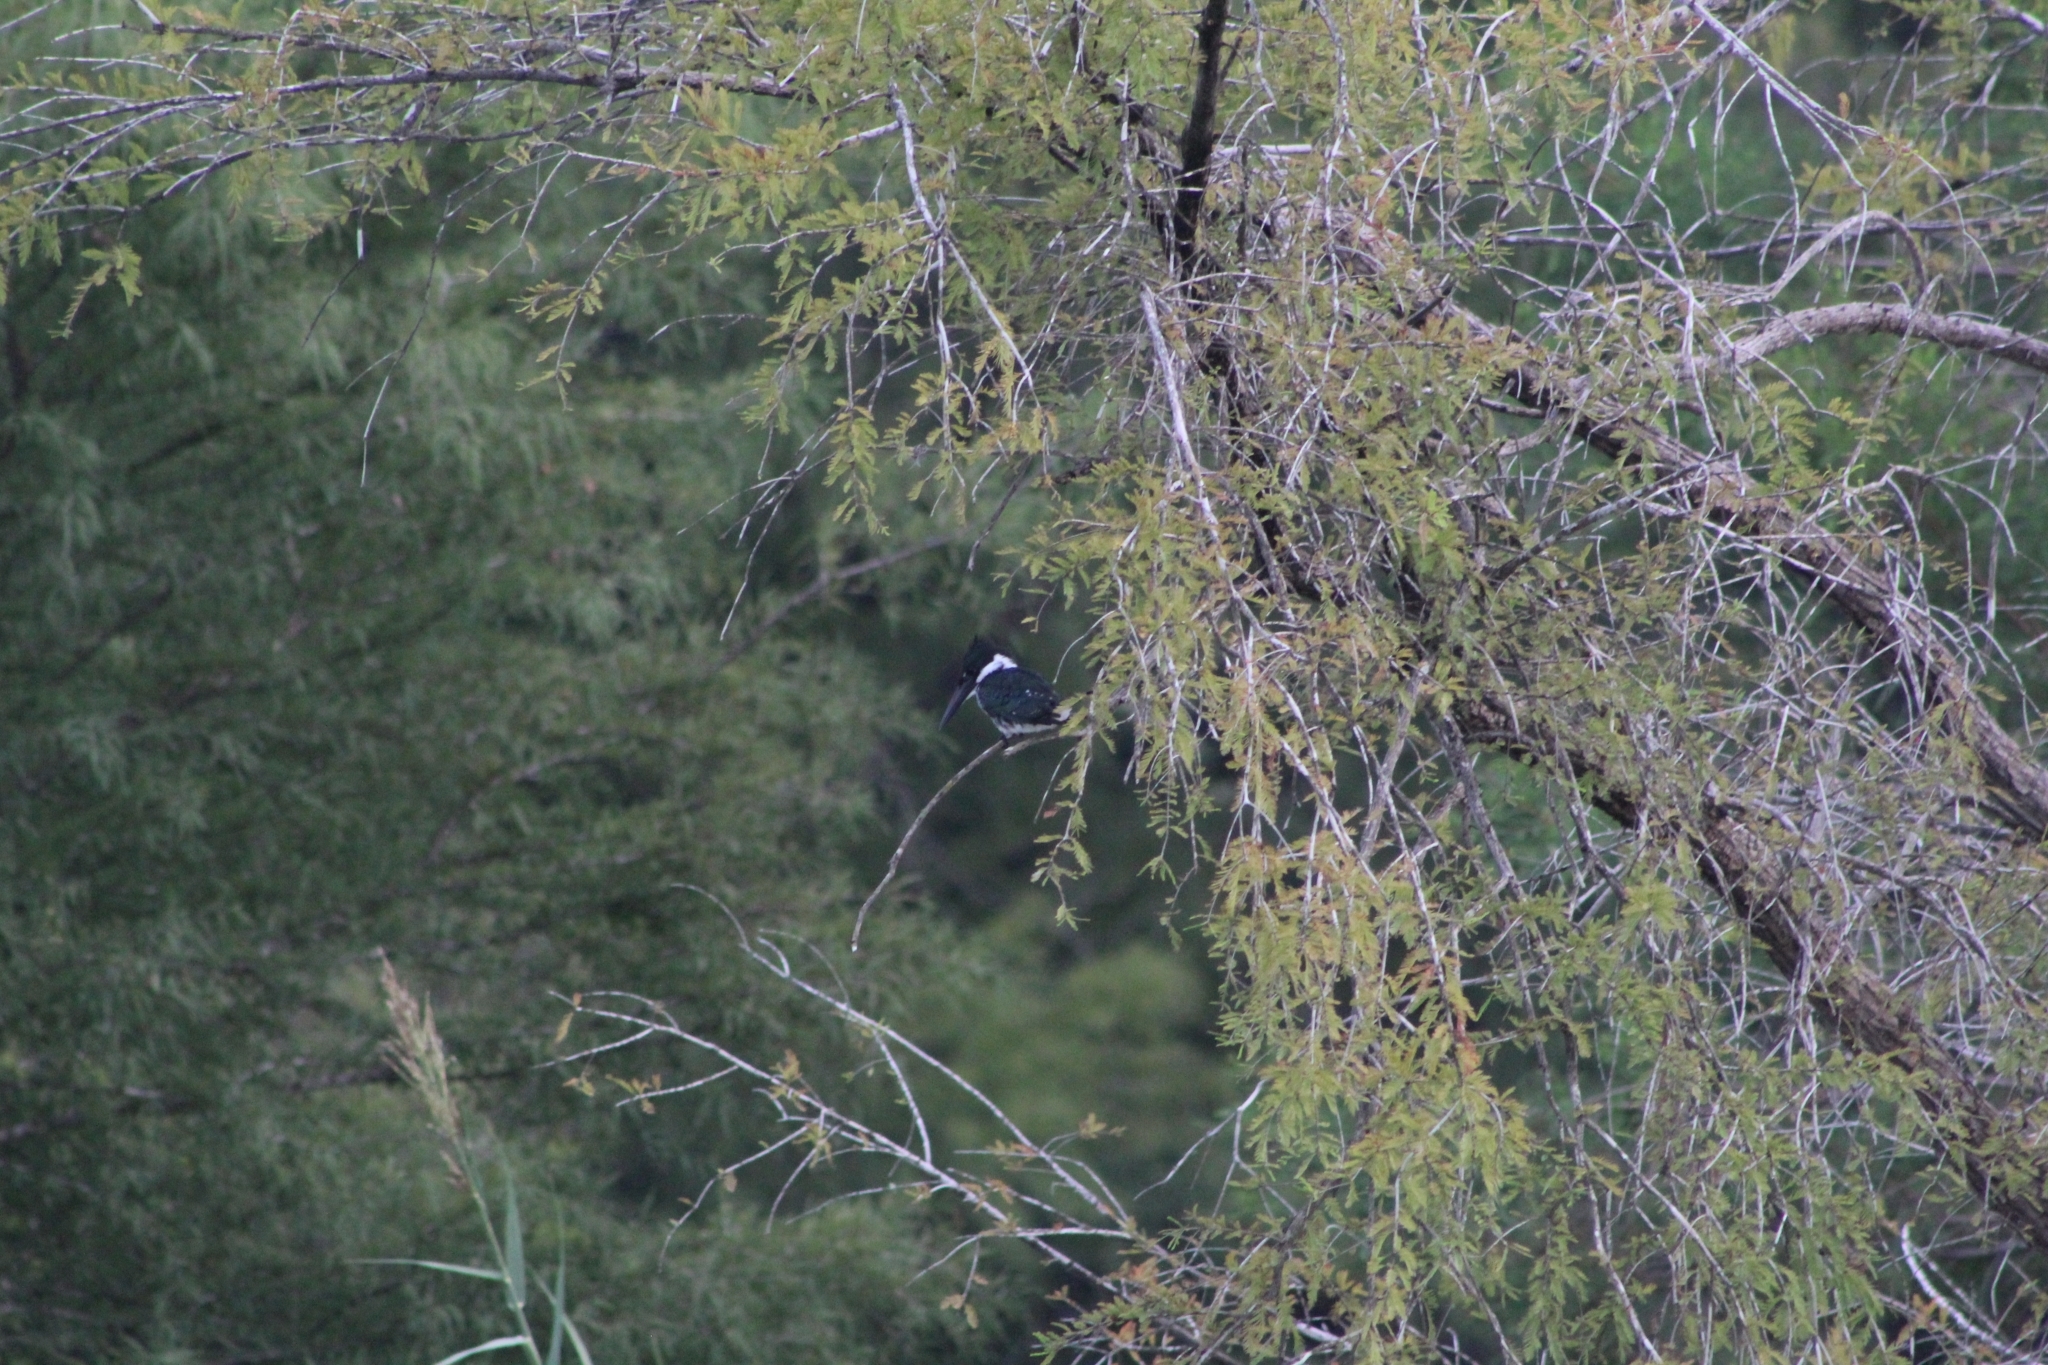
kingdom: Animalia
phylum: Chordata
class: Aves
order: Coraciiformes
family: Alcedinidae
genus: Chloroceryle
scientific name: Chloroceryle amazona
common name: Amazon kingfisher
